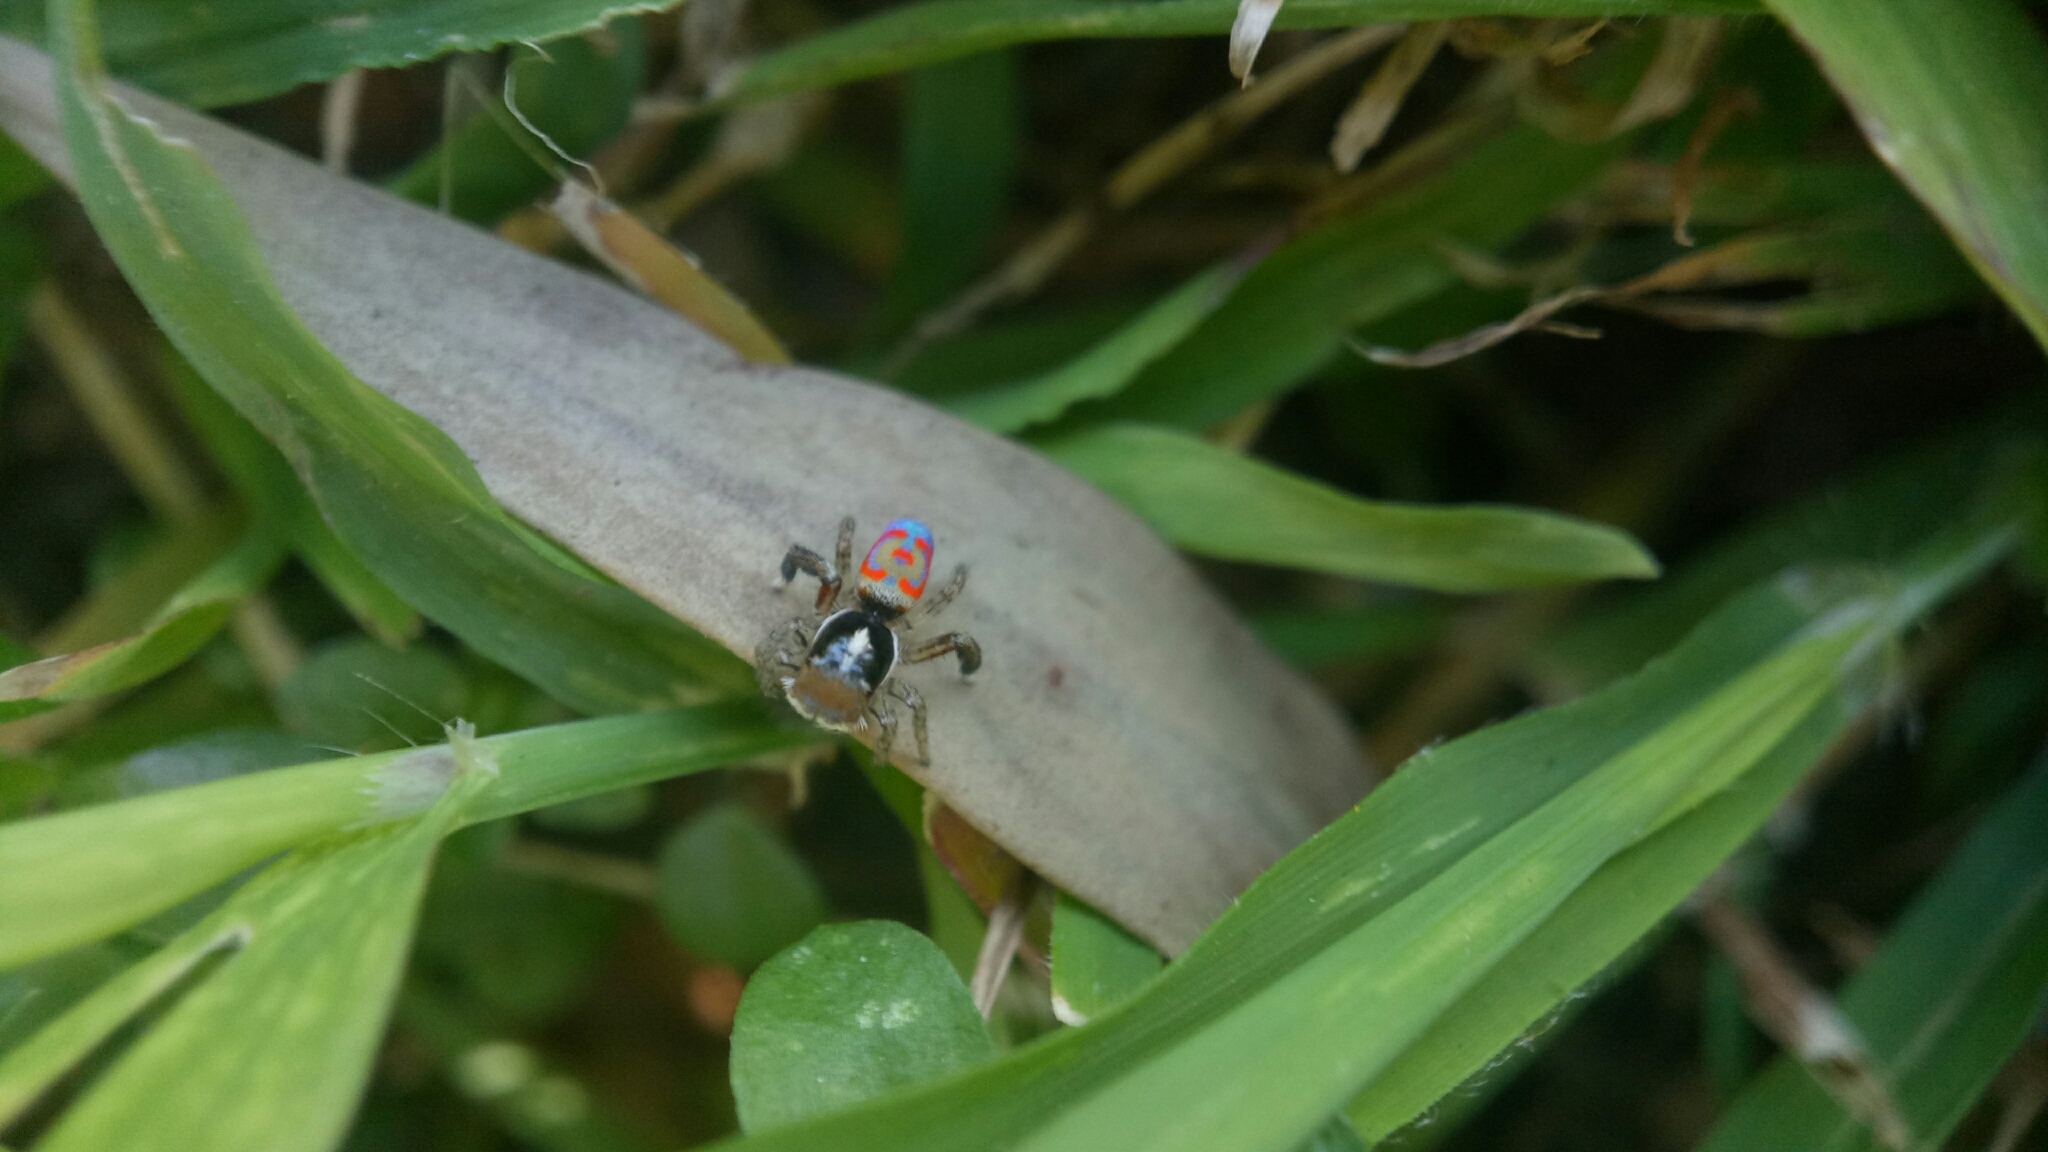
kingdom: Animalia
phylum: Arthropoda
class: Arachnida
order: Araneae
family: Salticidae
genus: Maratus
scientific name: Maratus pavonis
